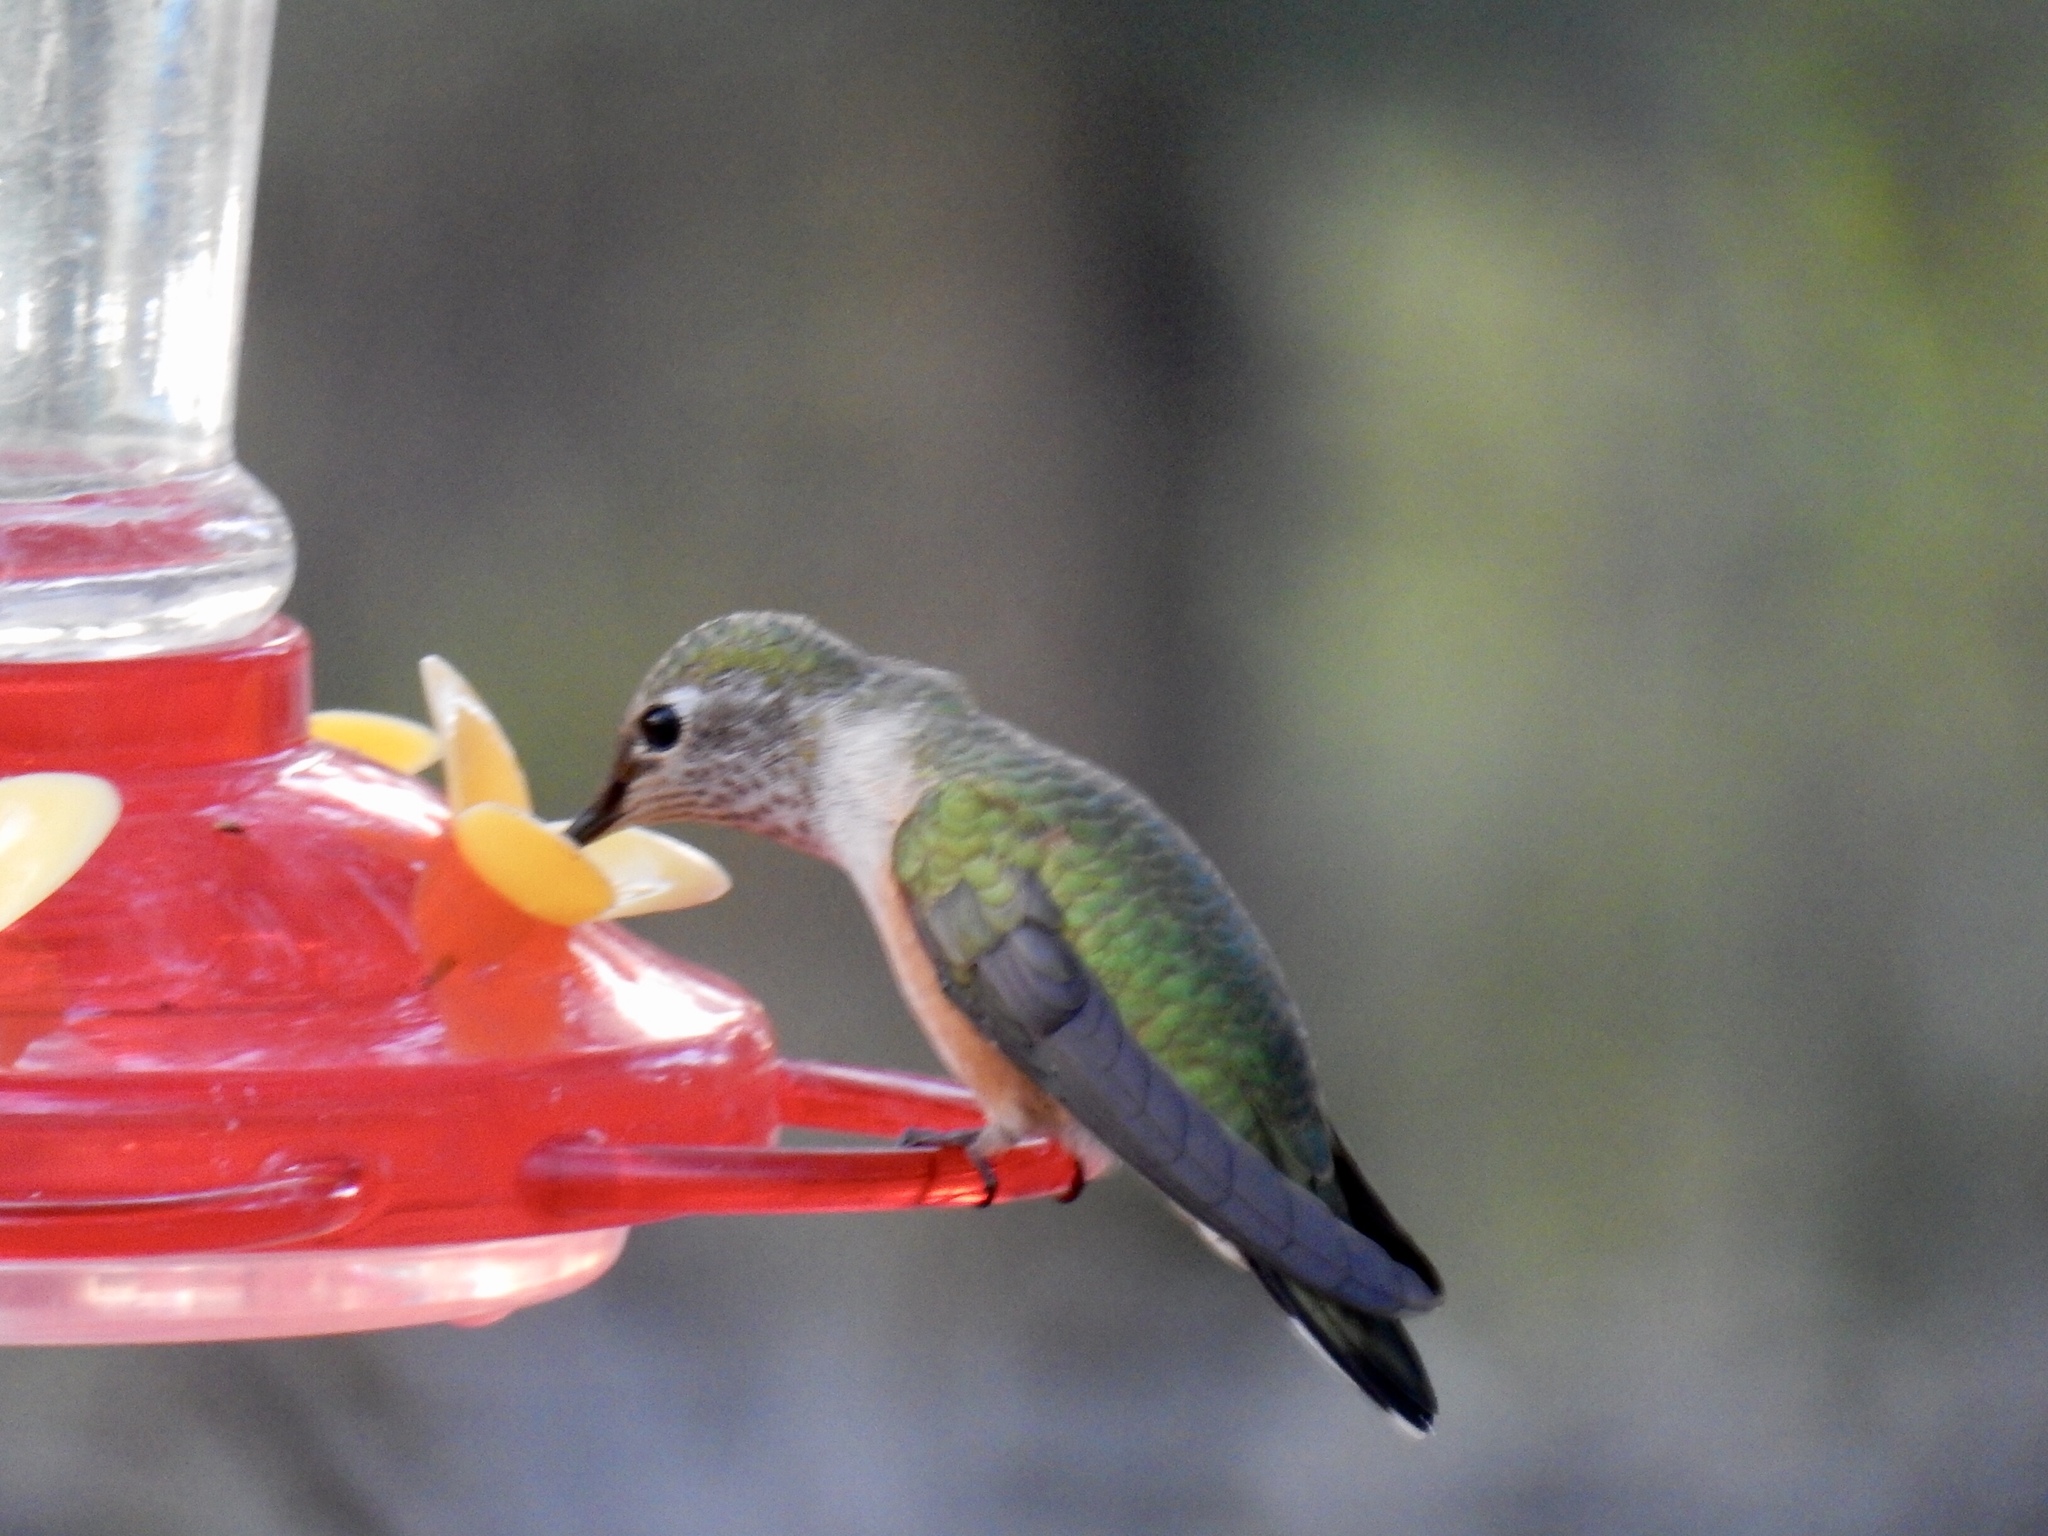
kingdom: Animalia
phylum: Chordata
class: Aves
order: Apodiformes
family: Trochilidae
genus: Selasphorus
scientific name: Selasphorus platycercus
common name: Broad-tailed hummingbird
